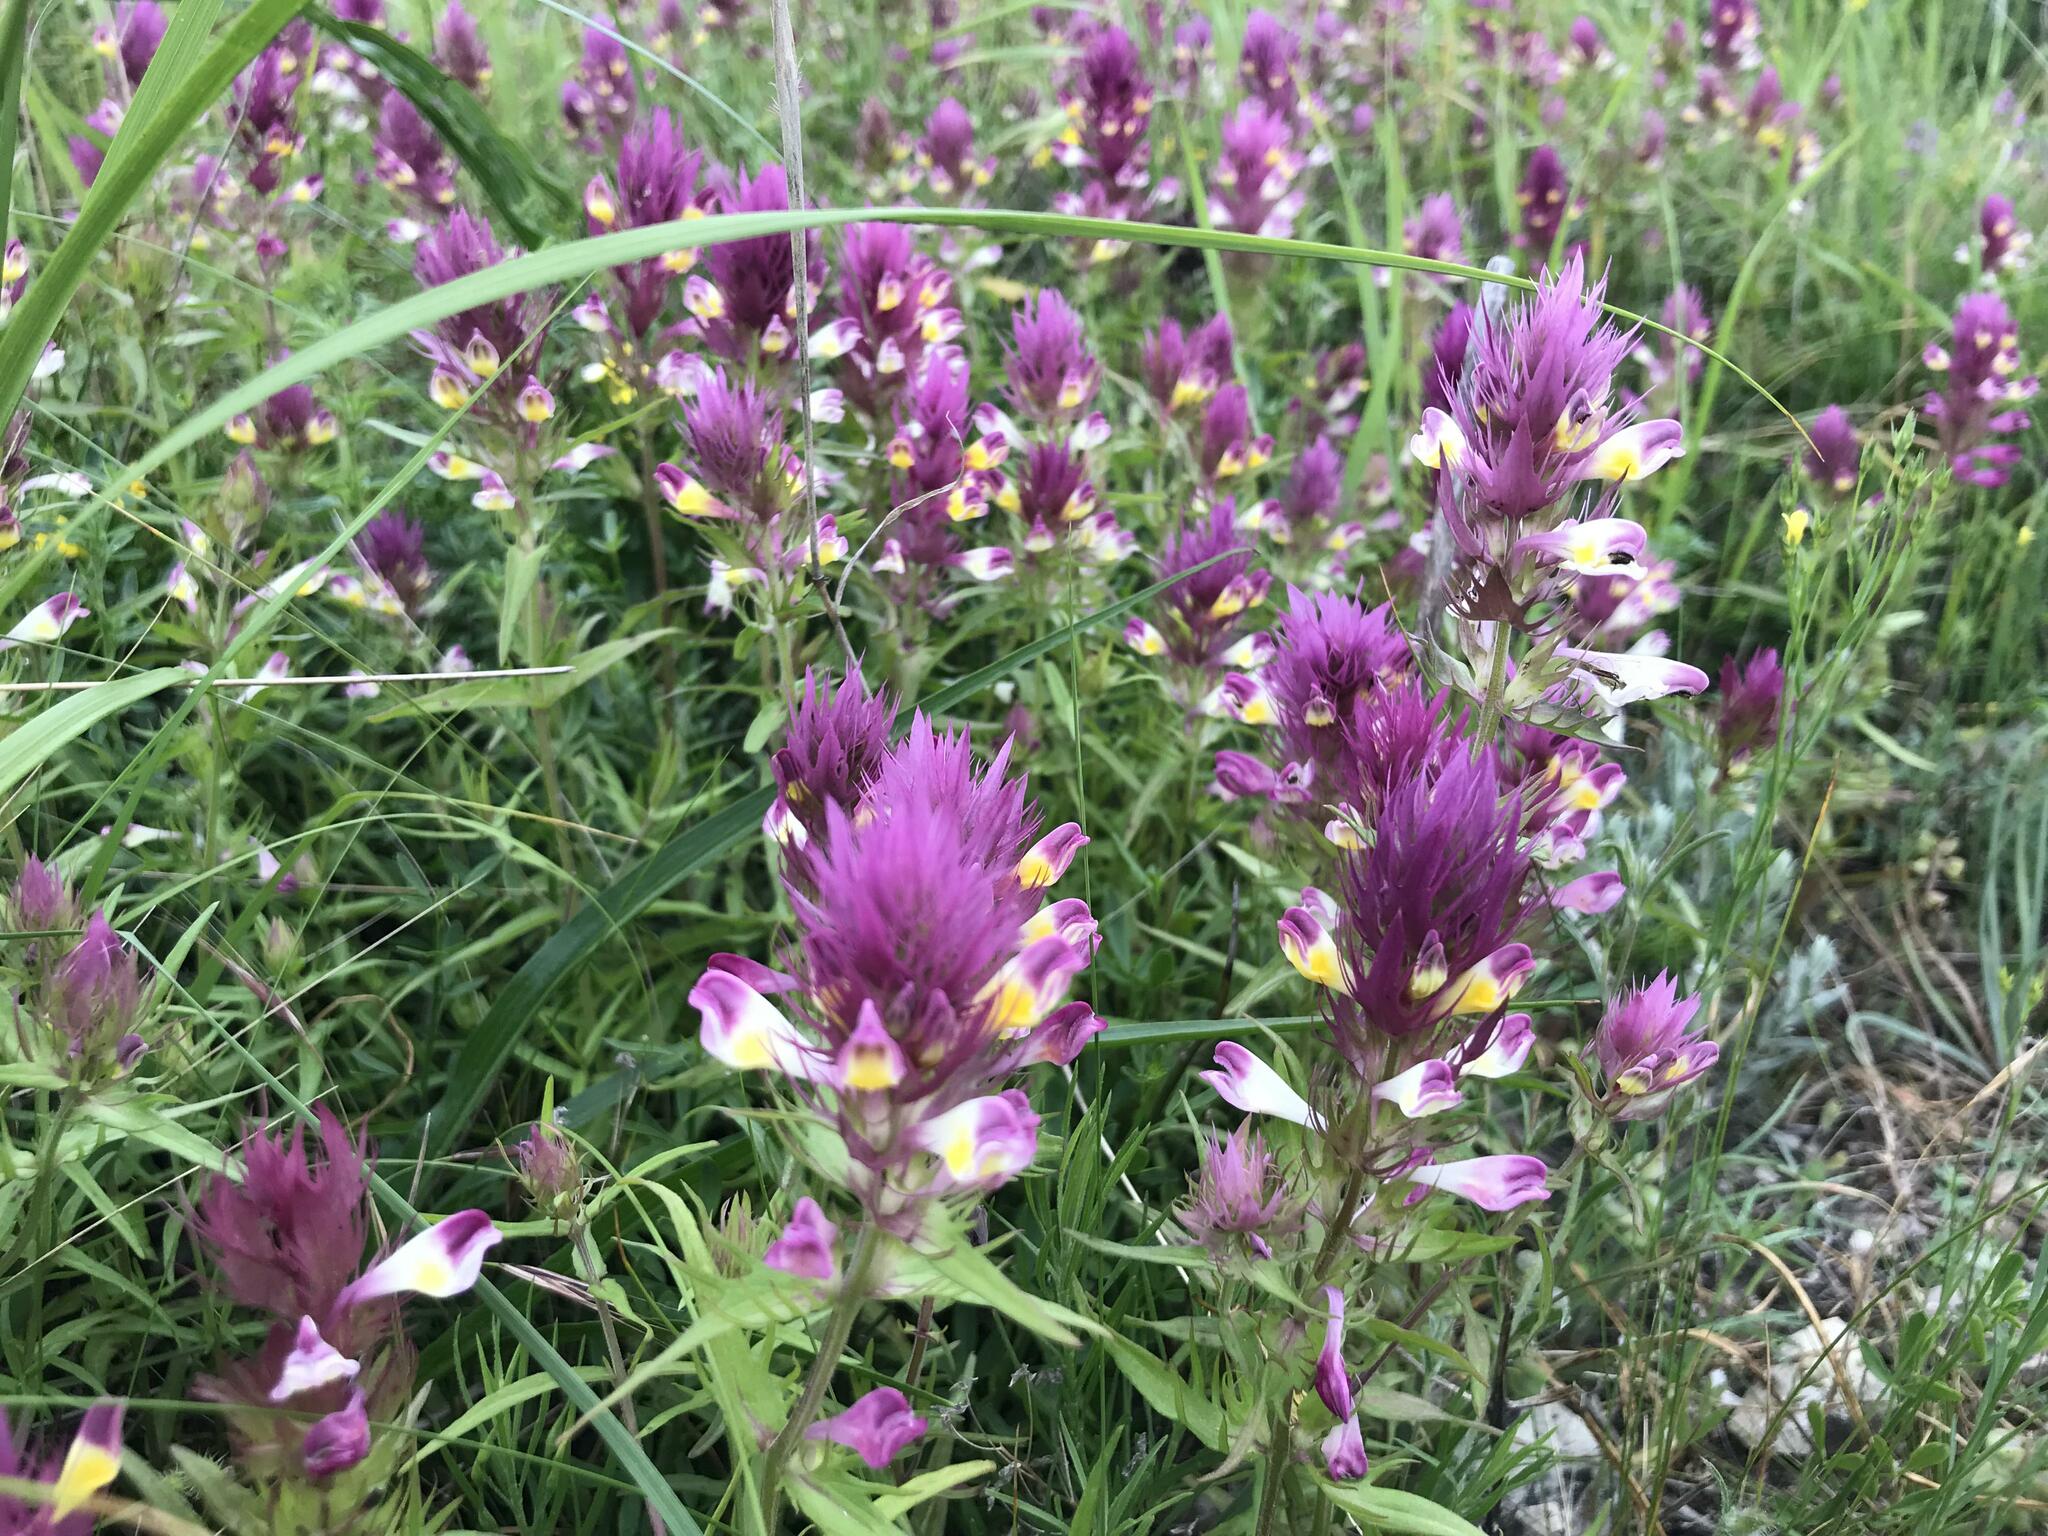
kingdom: Plantae
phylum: Tracheophyta
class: Magnoliopsida
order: Lamiales
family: Orobanchaceae
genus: Melampyrum
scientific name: Melampyrum arvense
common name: Field cow-wheat
